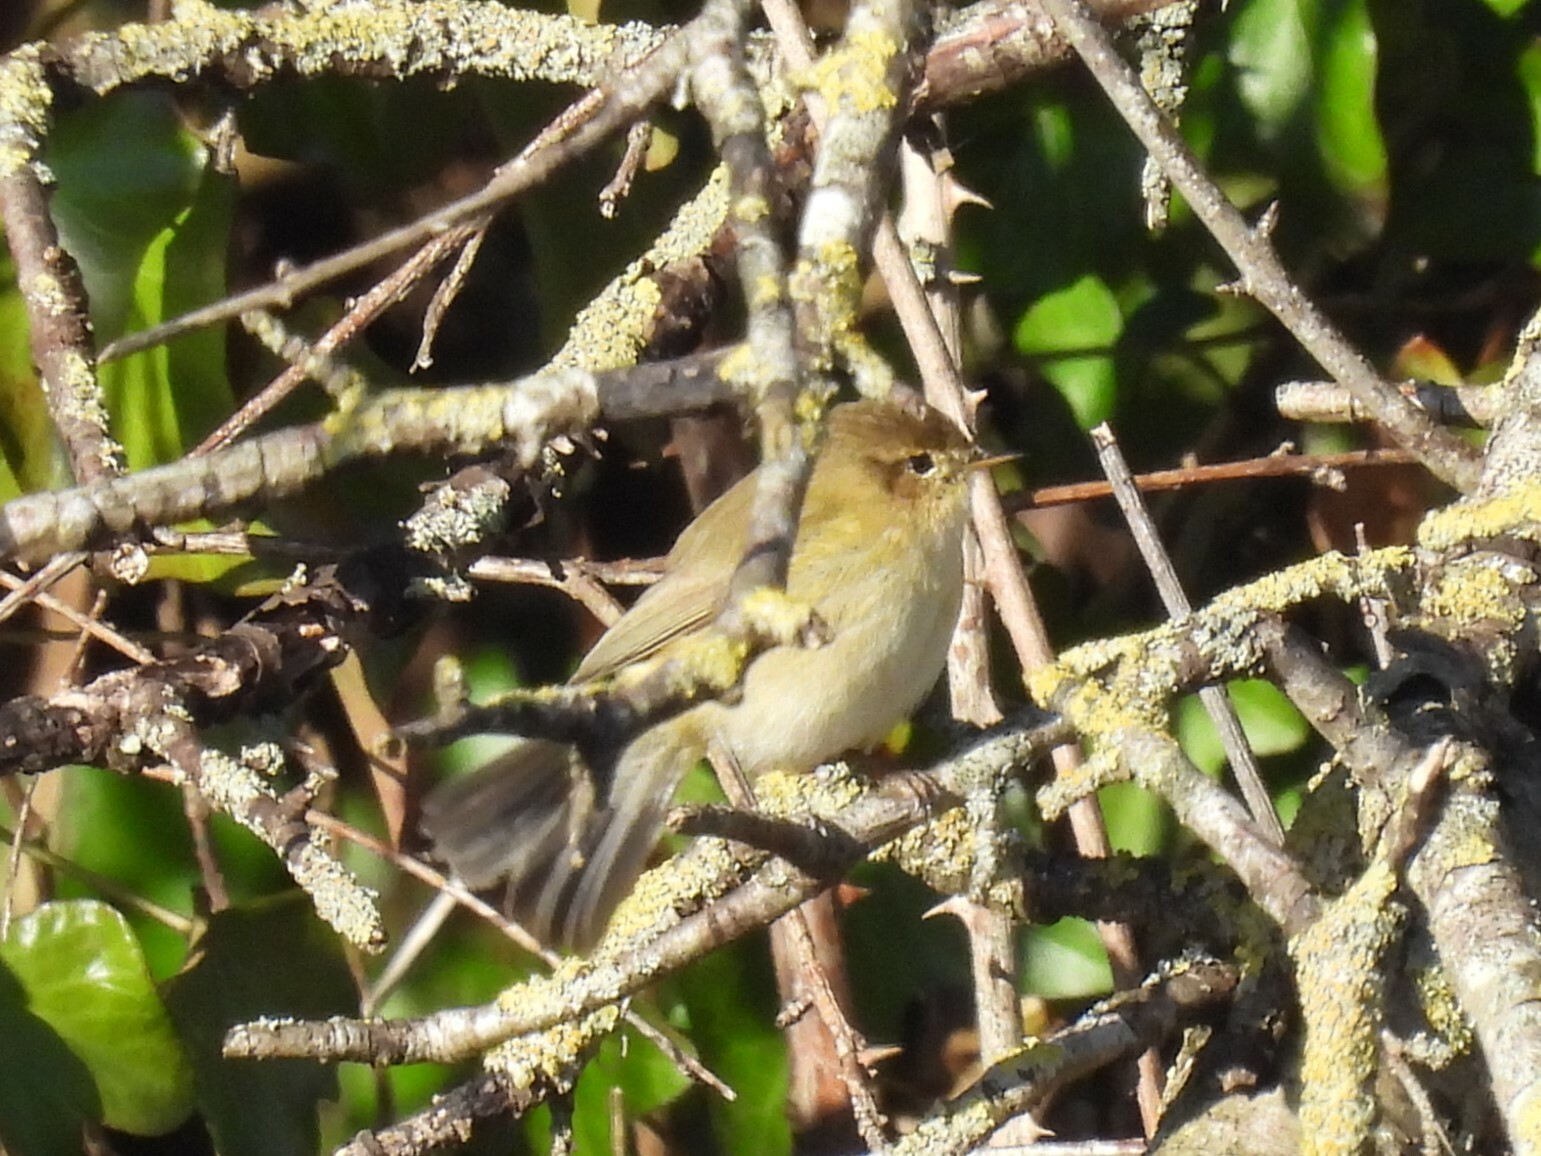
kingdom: Animalia
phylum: Chordata
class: Aves
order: Passeriformes
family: Phylloscopidae
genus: Phylloscopus
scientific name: Phylloscopus collybita
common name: Common chiffchaff
